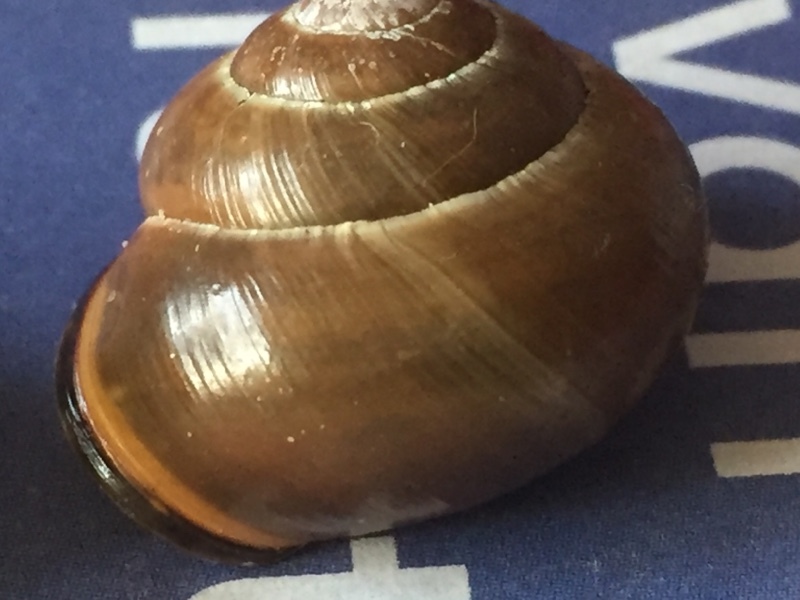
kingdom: Animalia
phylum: Mollusca
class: Gastropoda
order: Stylommatophora
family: Helicidae
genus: Cepaea
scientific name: Cepaea nemoralis
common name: Grovesnail
